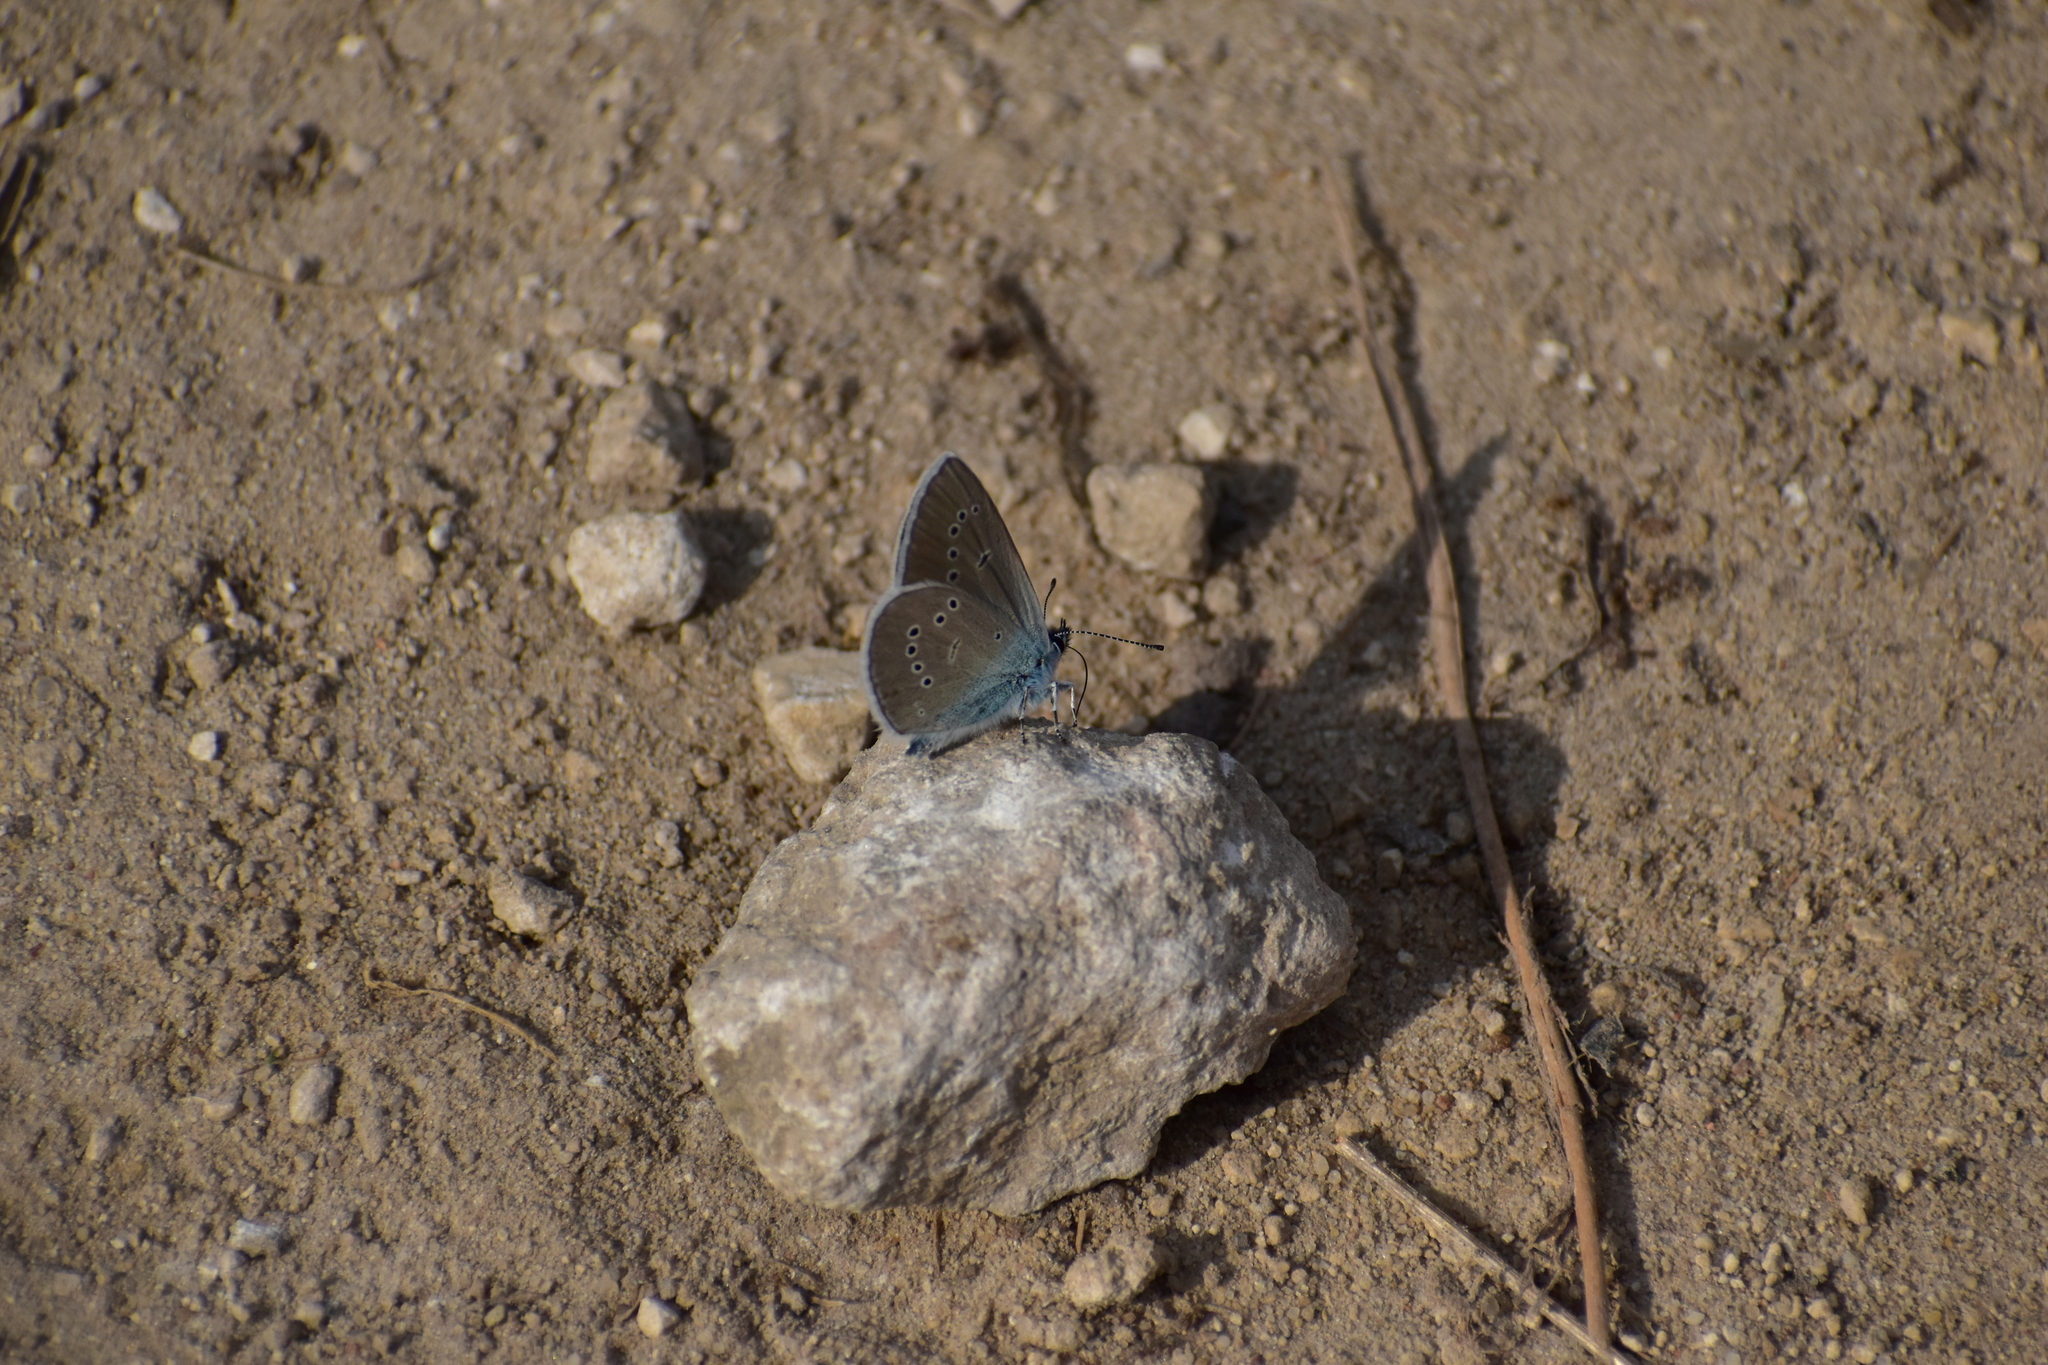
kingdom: Animalia
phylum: Arthropoda
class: Insecta
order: Lepidoptera
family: Lycaenidae
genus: Cyaniris
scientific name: Cyaniris semiargus
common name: Mazarine blue
